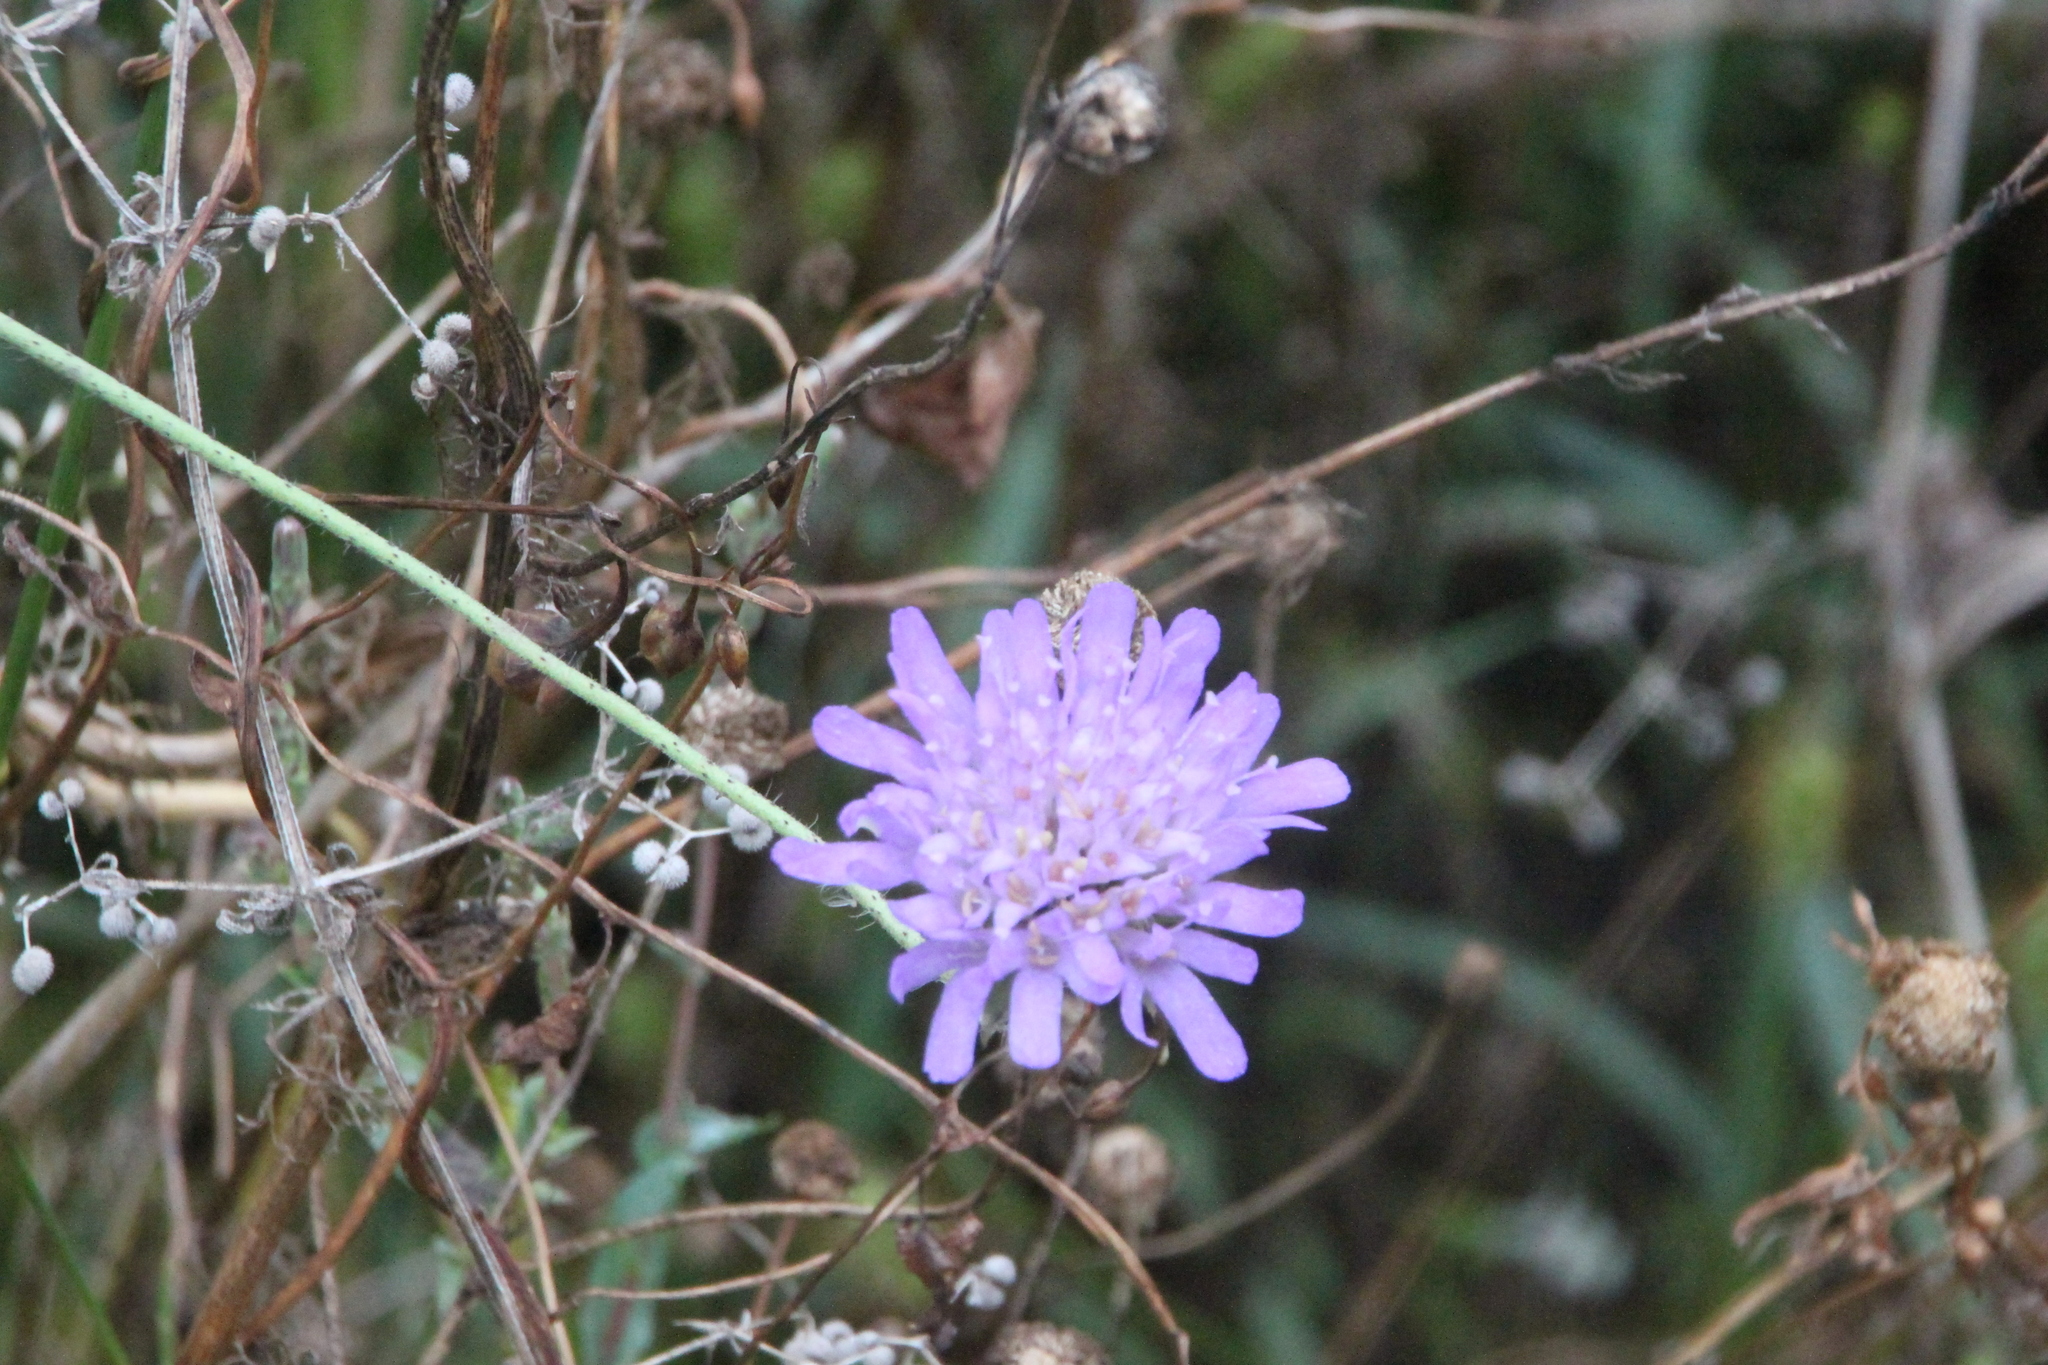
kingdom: Plantae
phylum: Tracheophyta
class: Magnoliopsida
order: Dipsacales
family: Caprifoliaceae
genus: Knautia
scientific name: Knautia arvensis
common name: Field scabiosa
